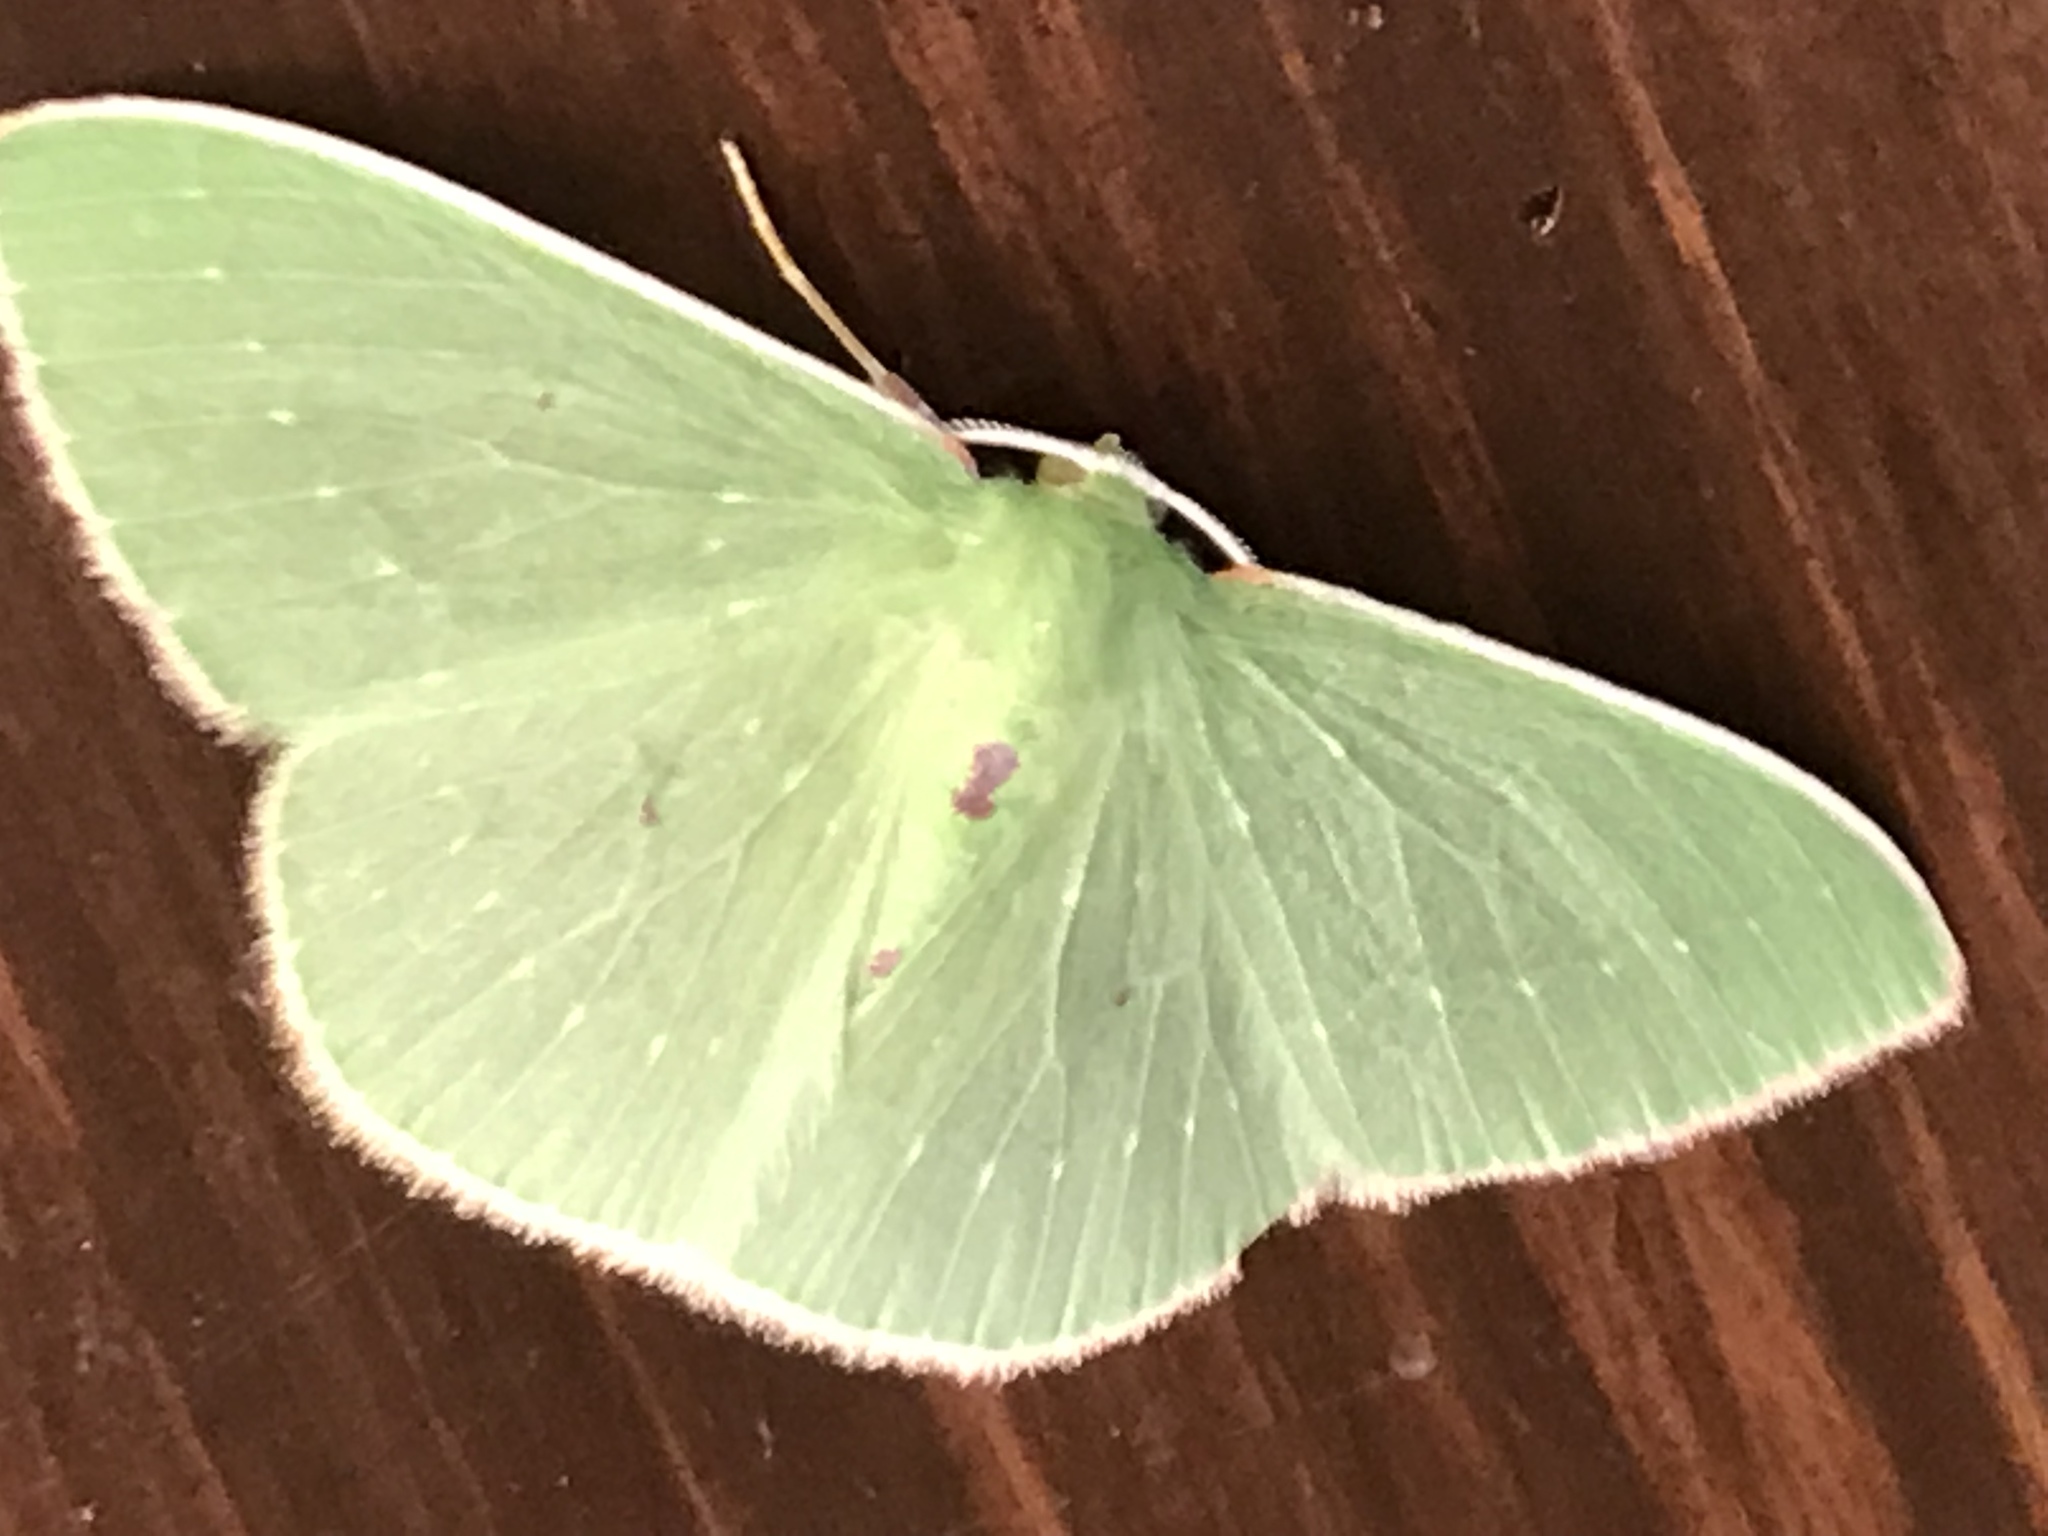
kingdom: Animalia
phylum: Arthropoda
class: Insecta
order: Lepidoptera
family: Geometridae
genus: Nemoria
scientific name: Nemoria darwiniata
